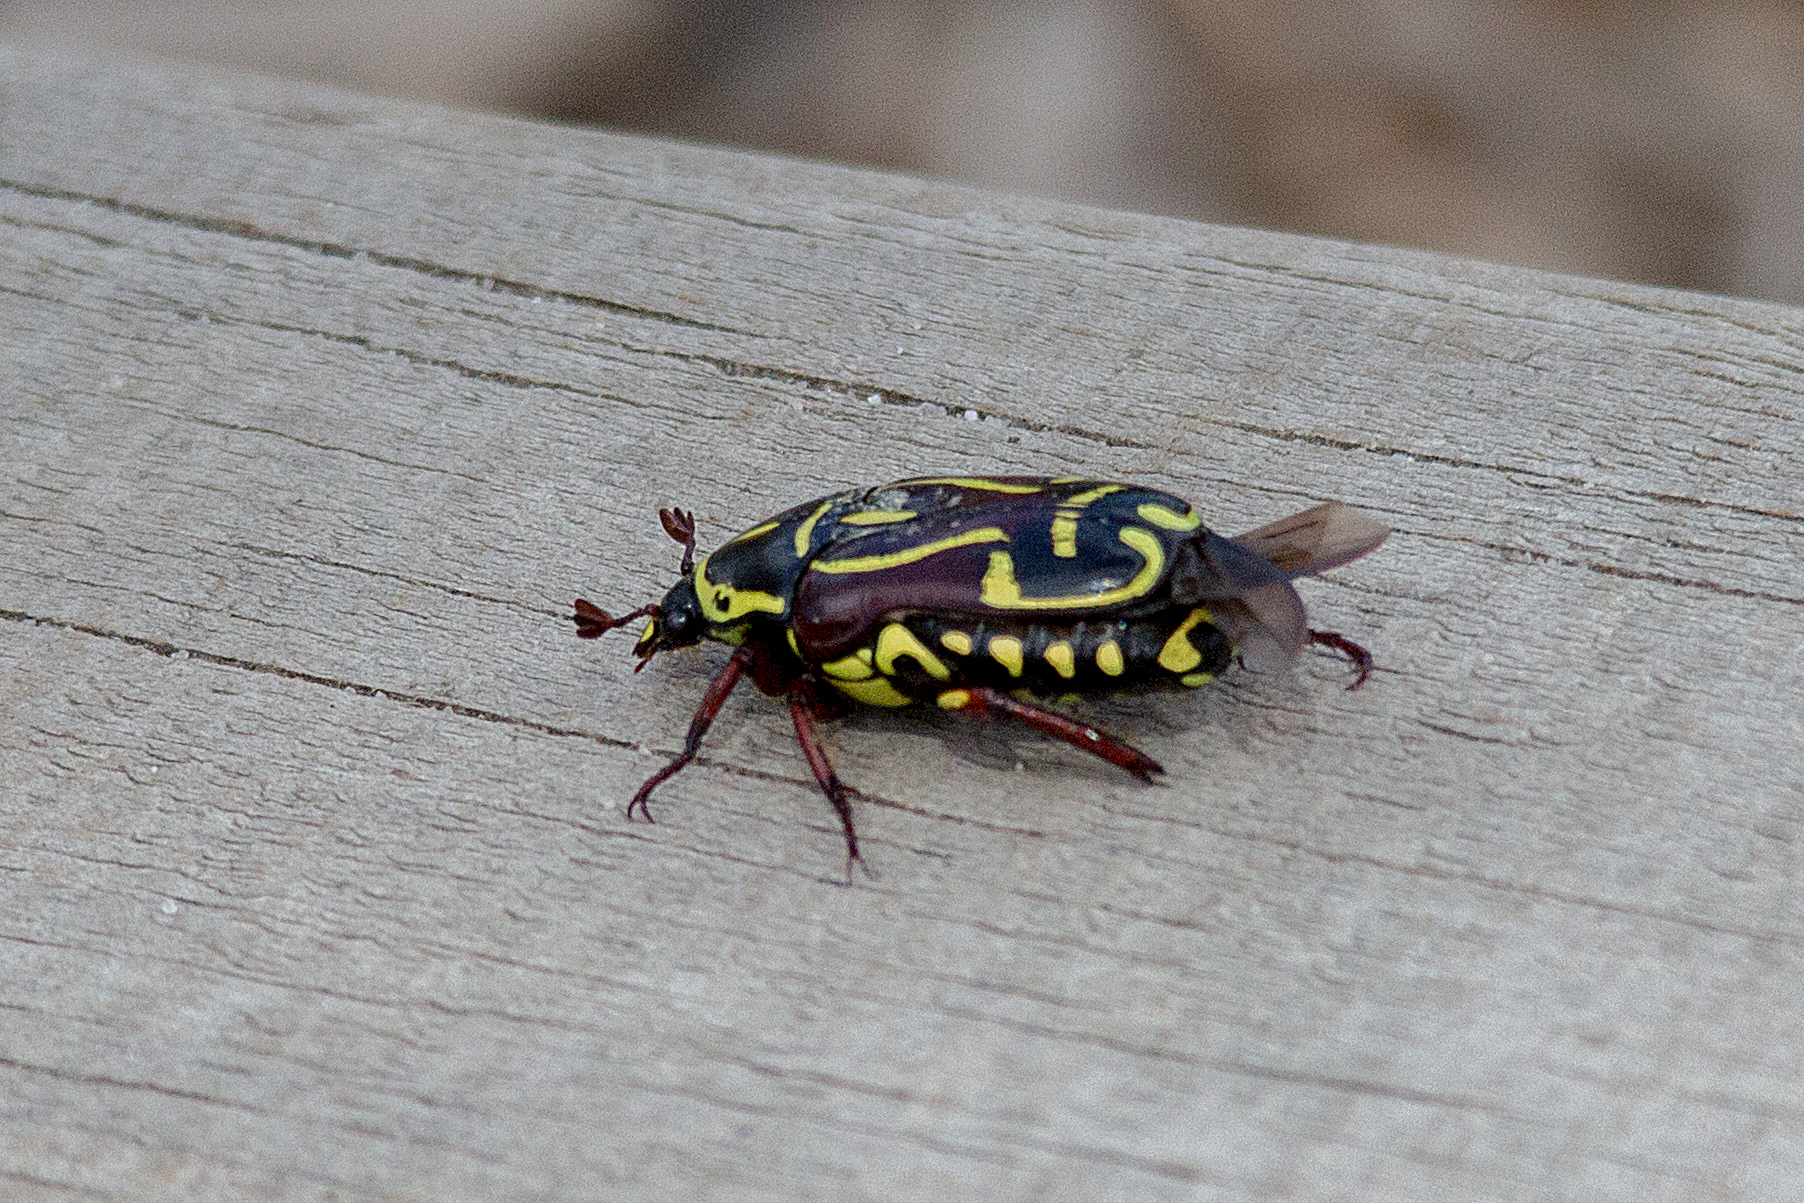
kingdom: Animalia
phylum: Arthropoda
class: Insecta
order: Coleoptera
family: Scarabaeidae
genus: Eupoecila
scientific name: Eupoecila australasiae
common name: Fiddler beetle
